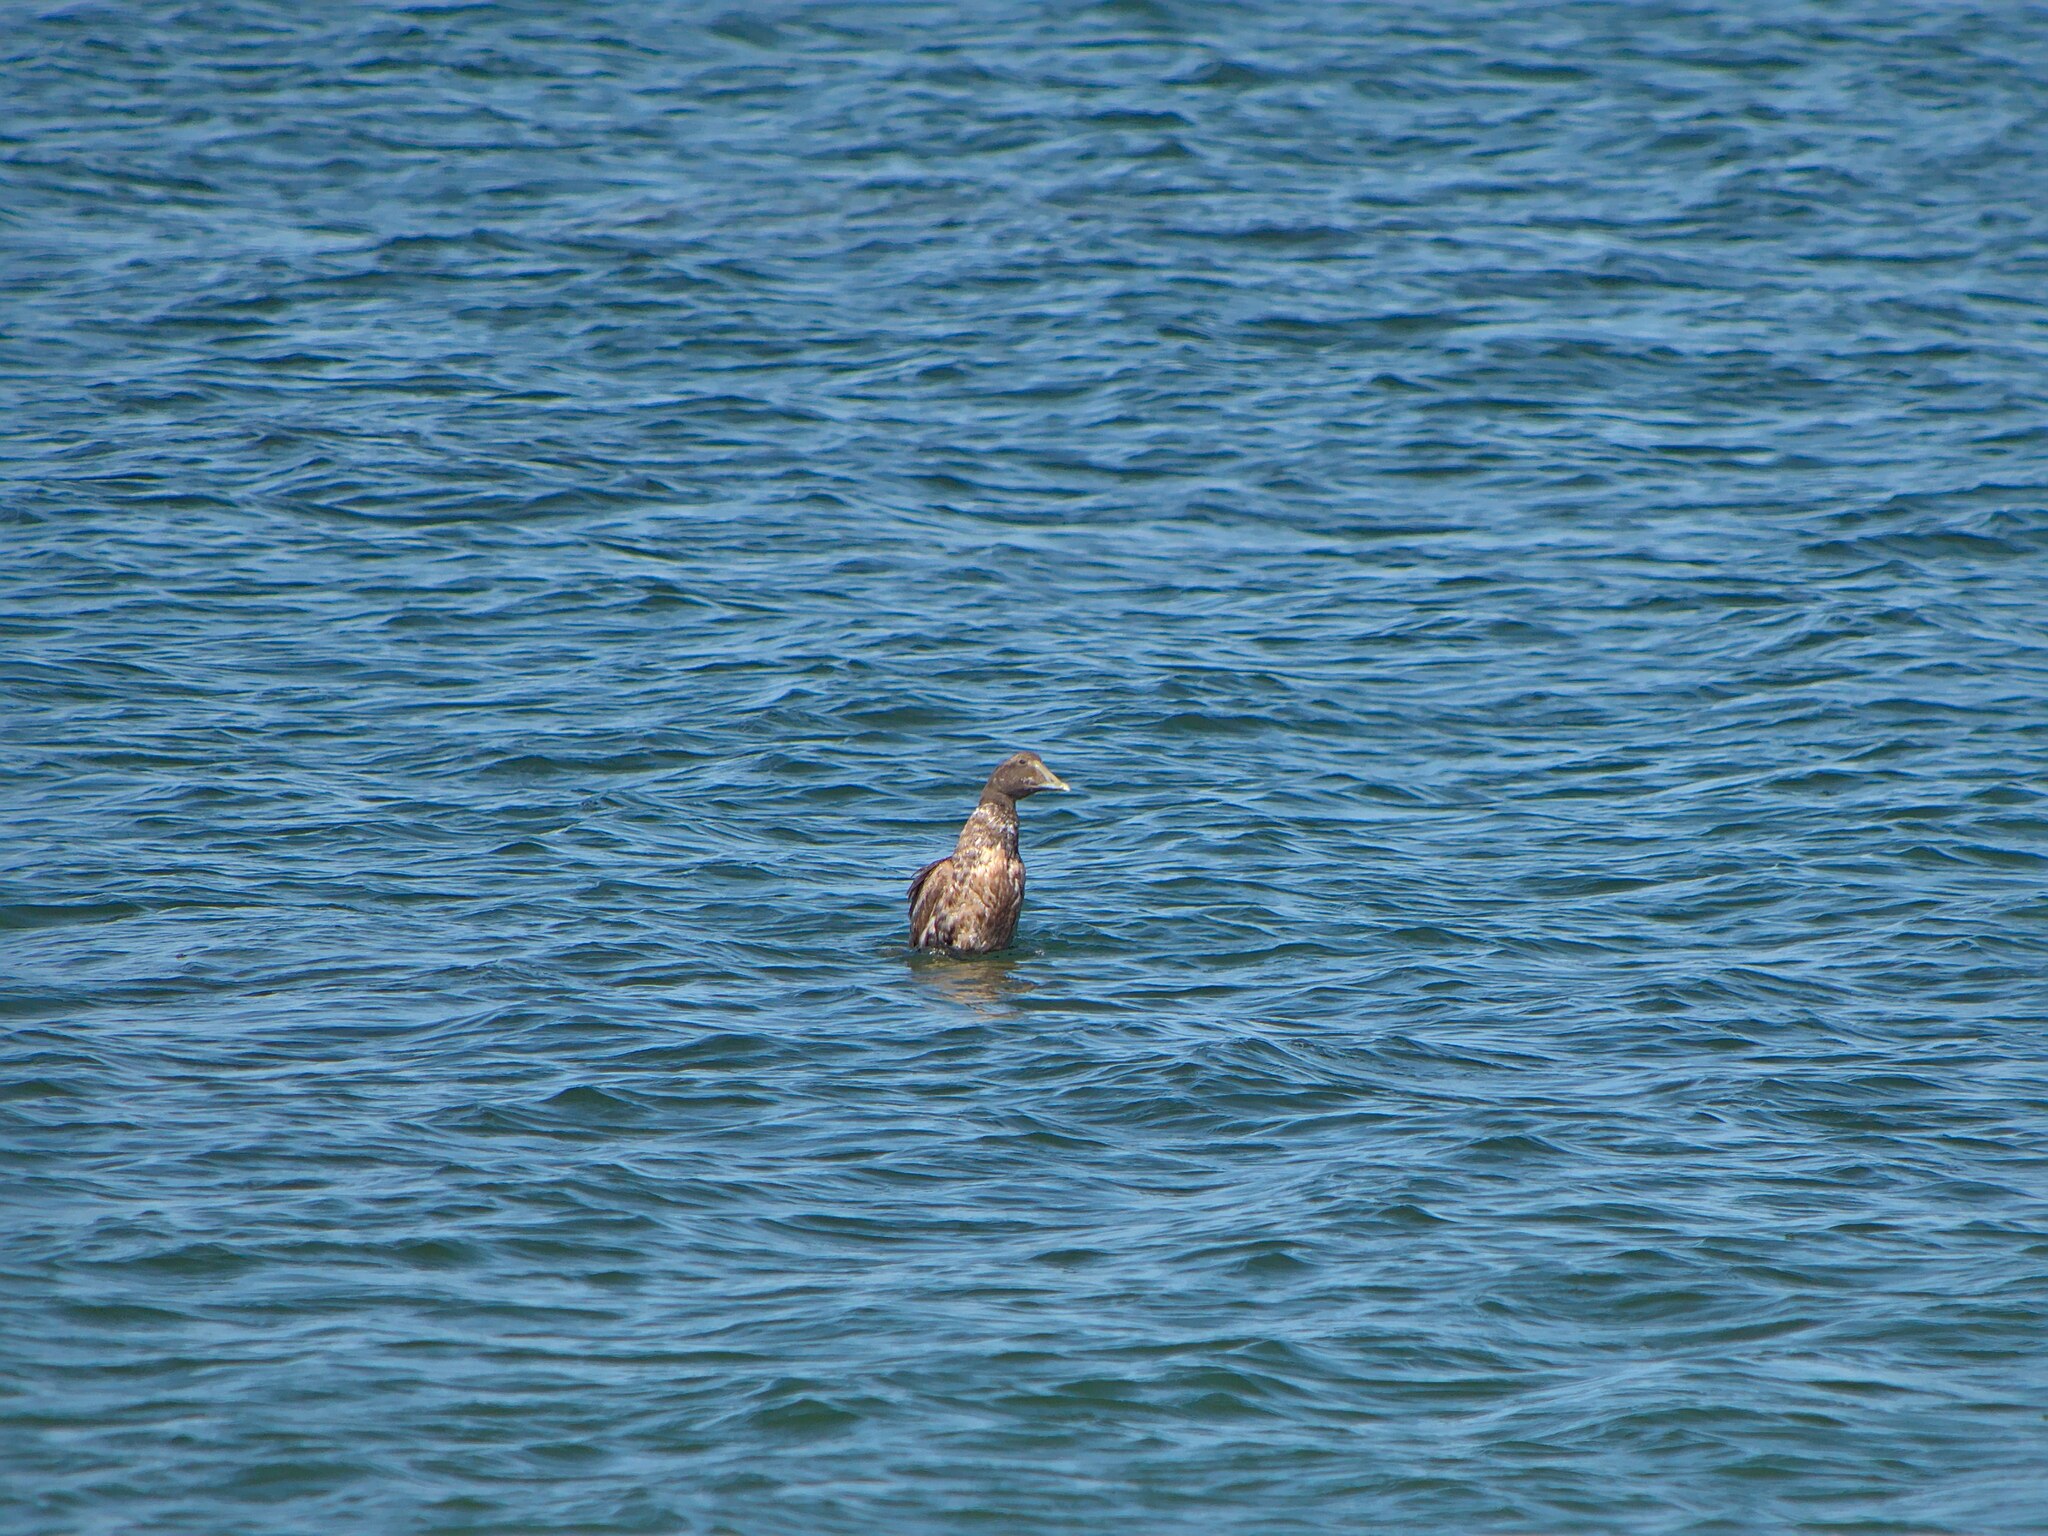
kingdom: Animalia
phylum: Chordata
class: Aves
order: Anseriformes
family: Anatidae
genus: Somateria
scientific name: Somateria mollissima
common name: Common eider
